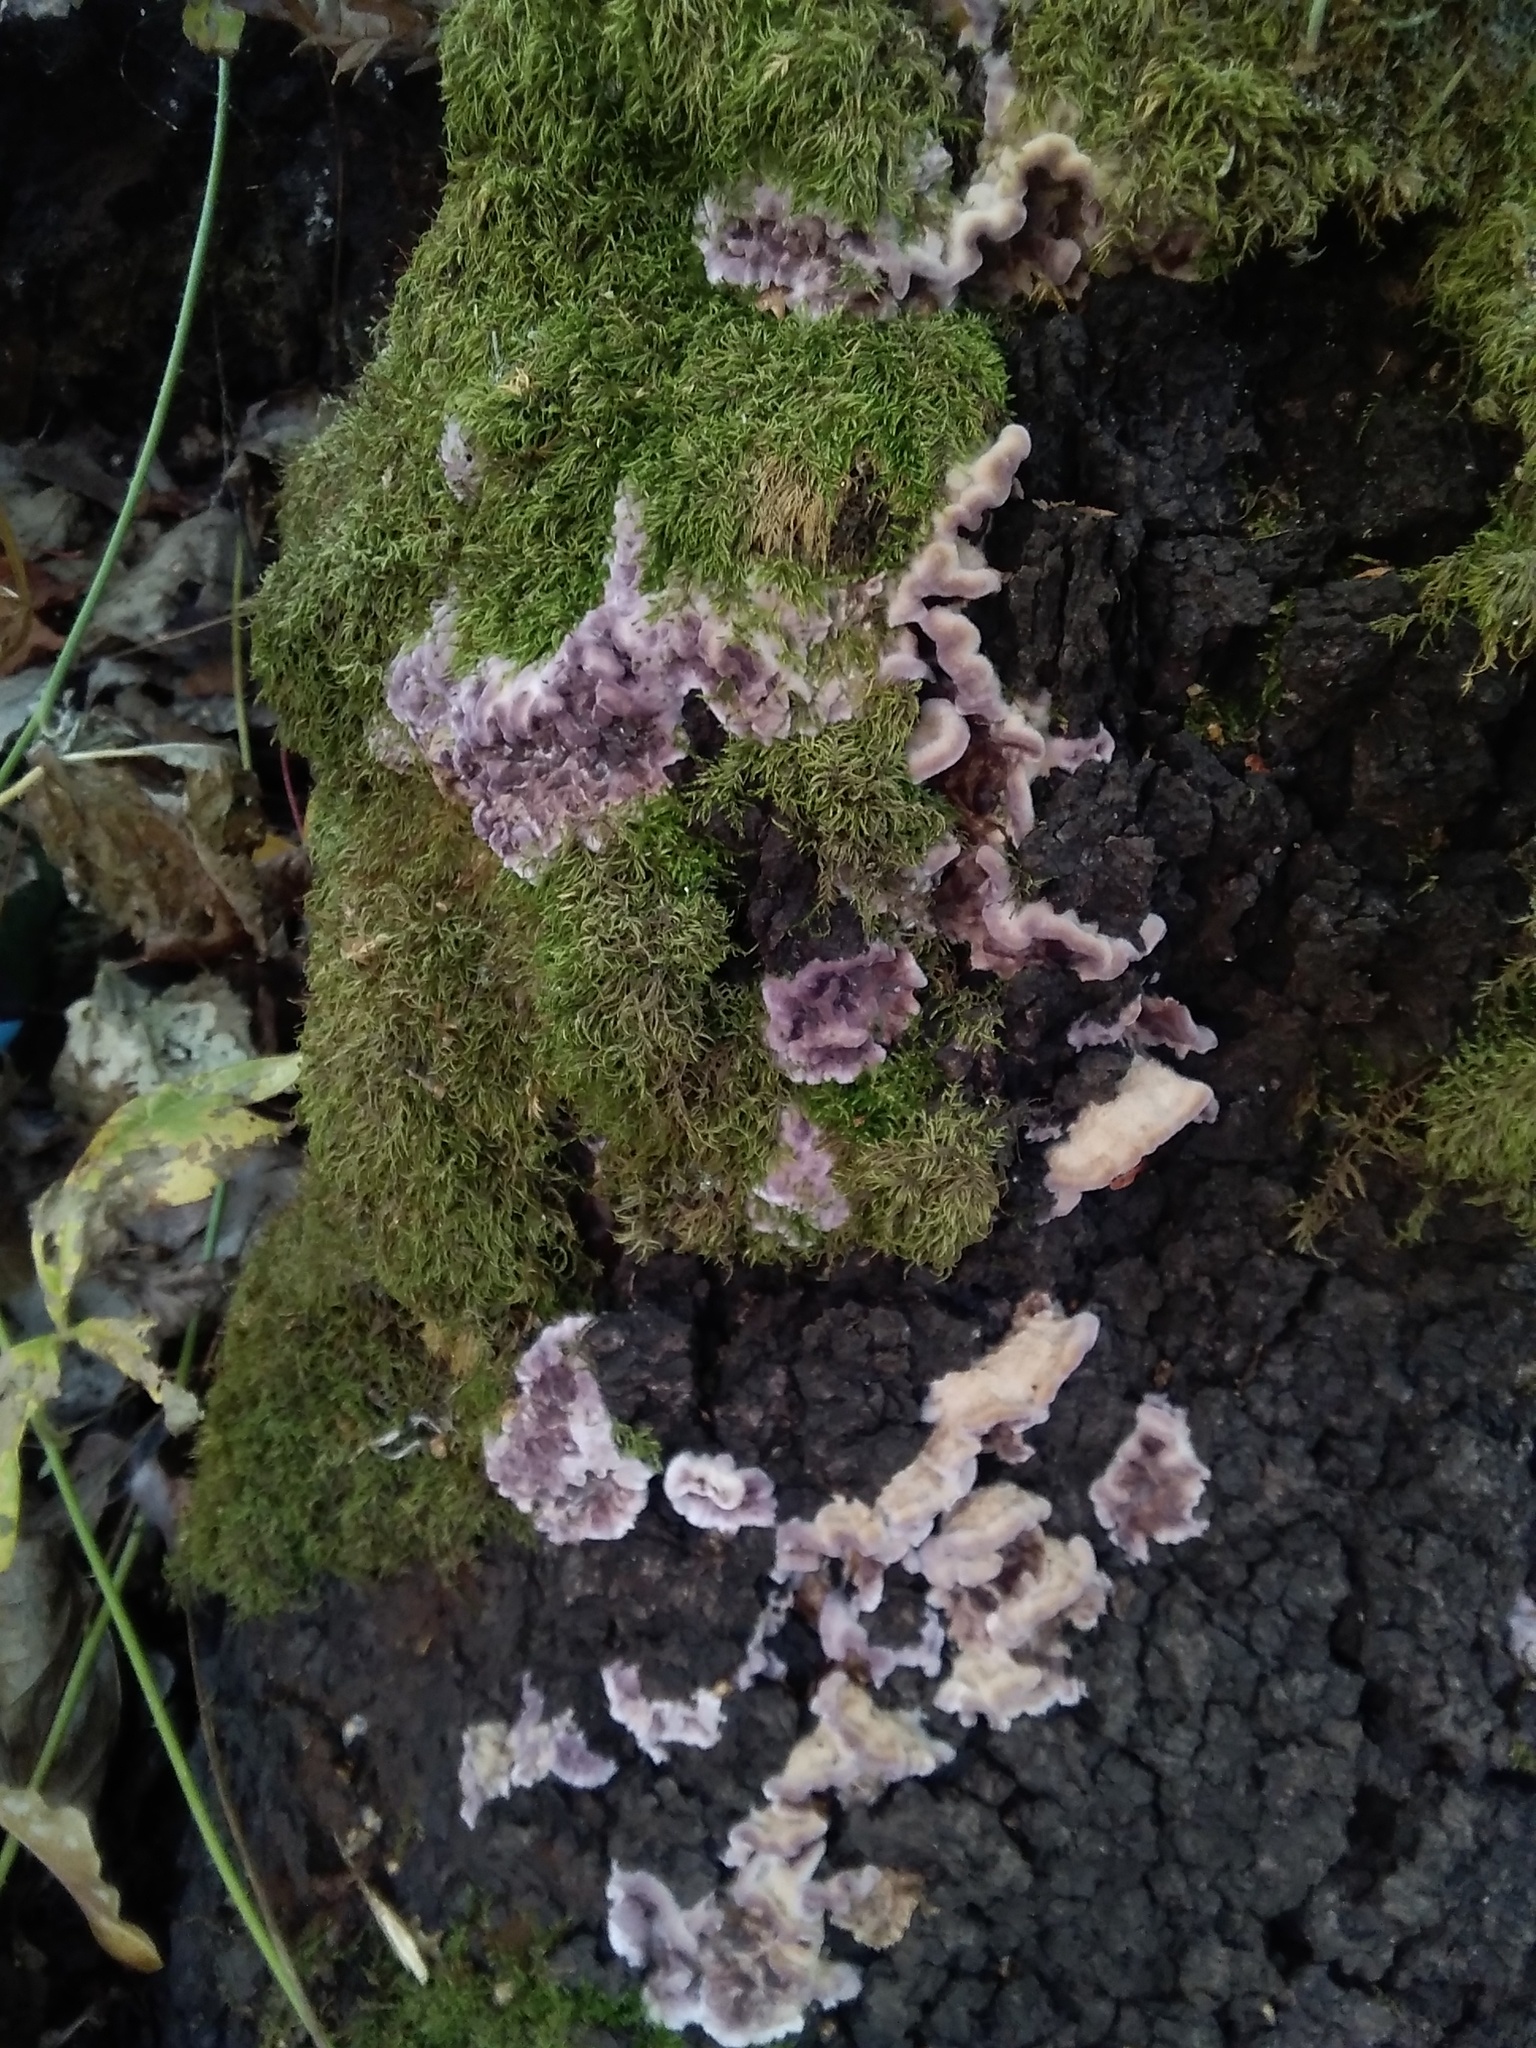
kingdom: Fungi
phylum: Basidiomycota
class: Agaricomycetes
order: Agaricales
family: Cyphellaceae
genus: Chondrostereum
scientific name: Chondrostereum purpureum
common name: Silver leaf disease
